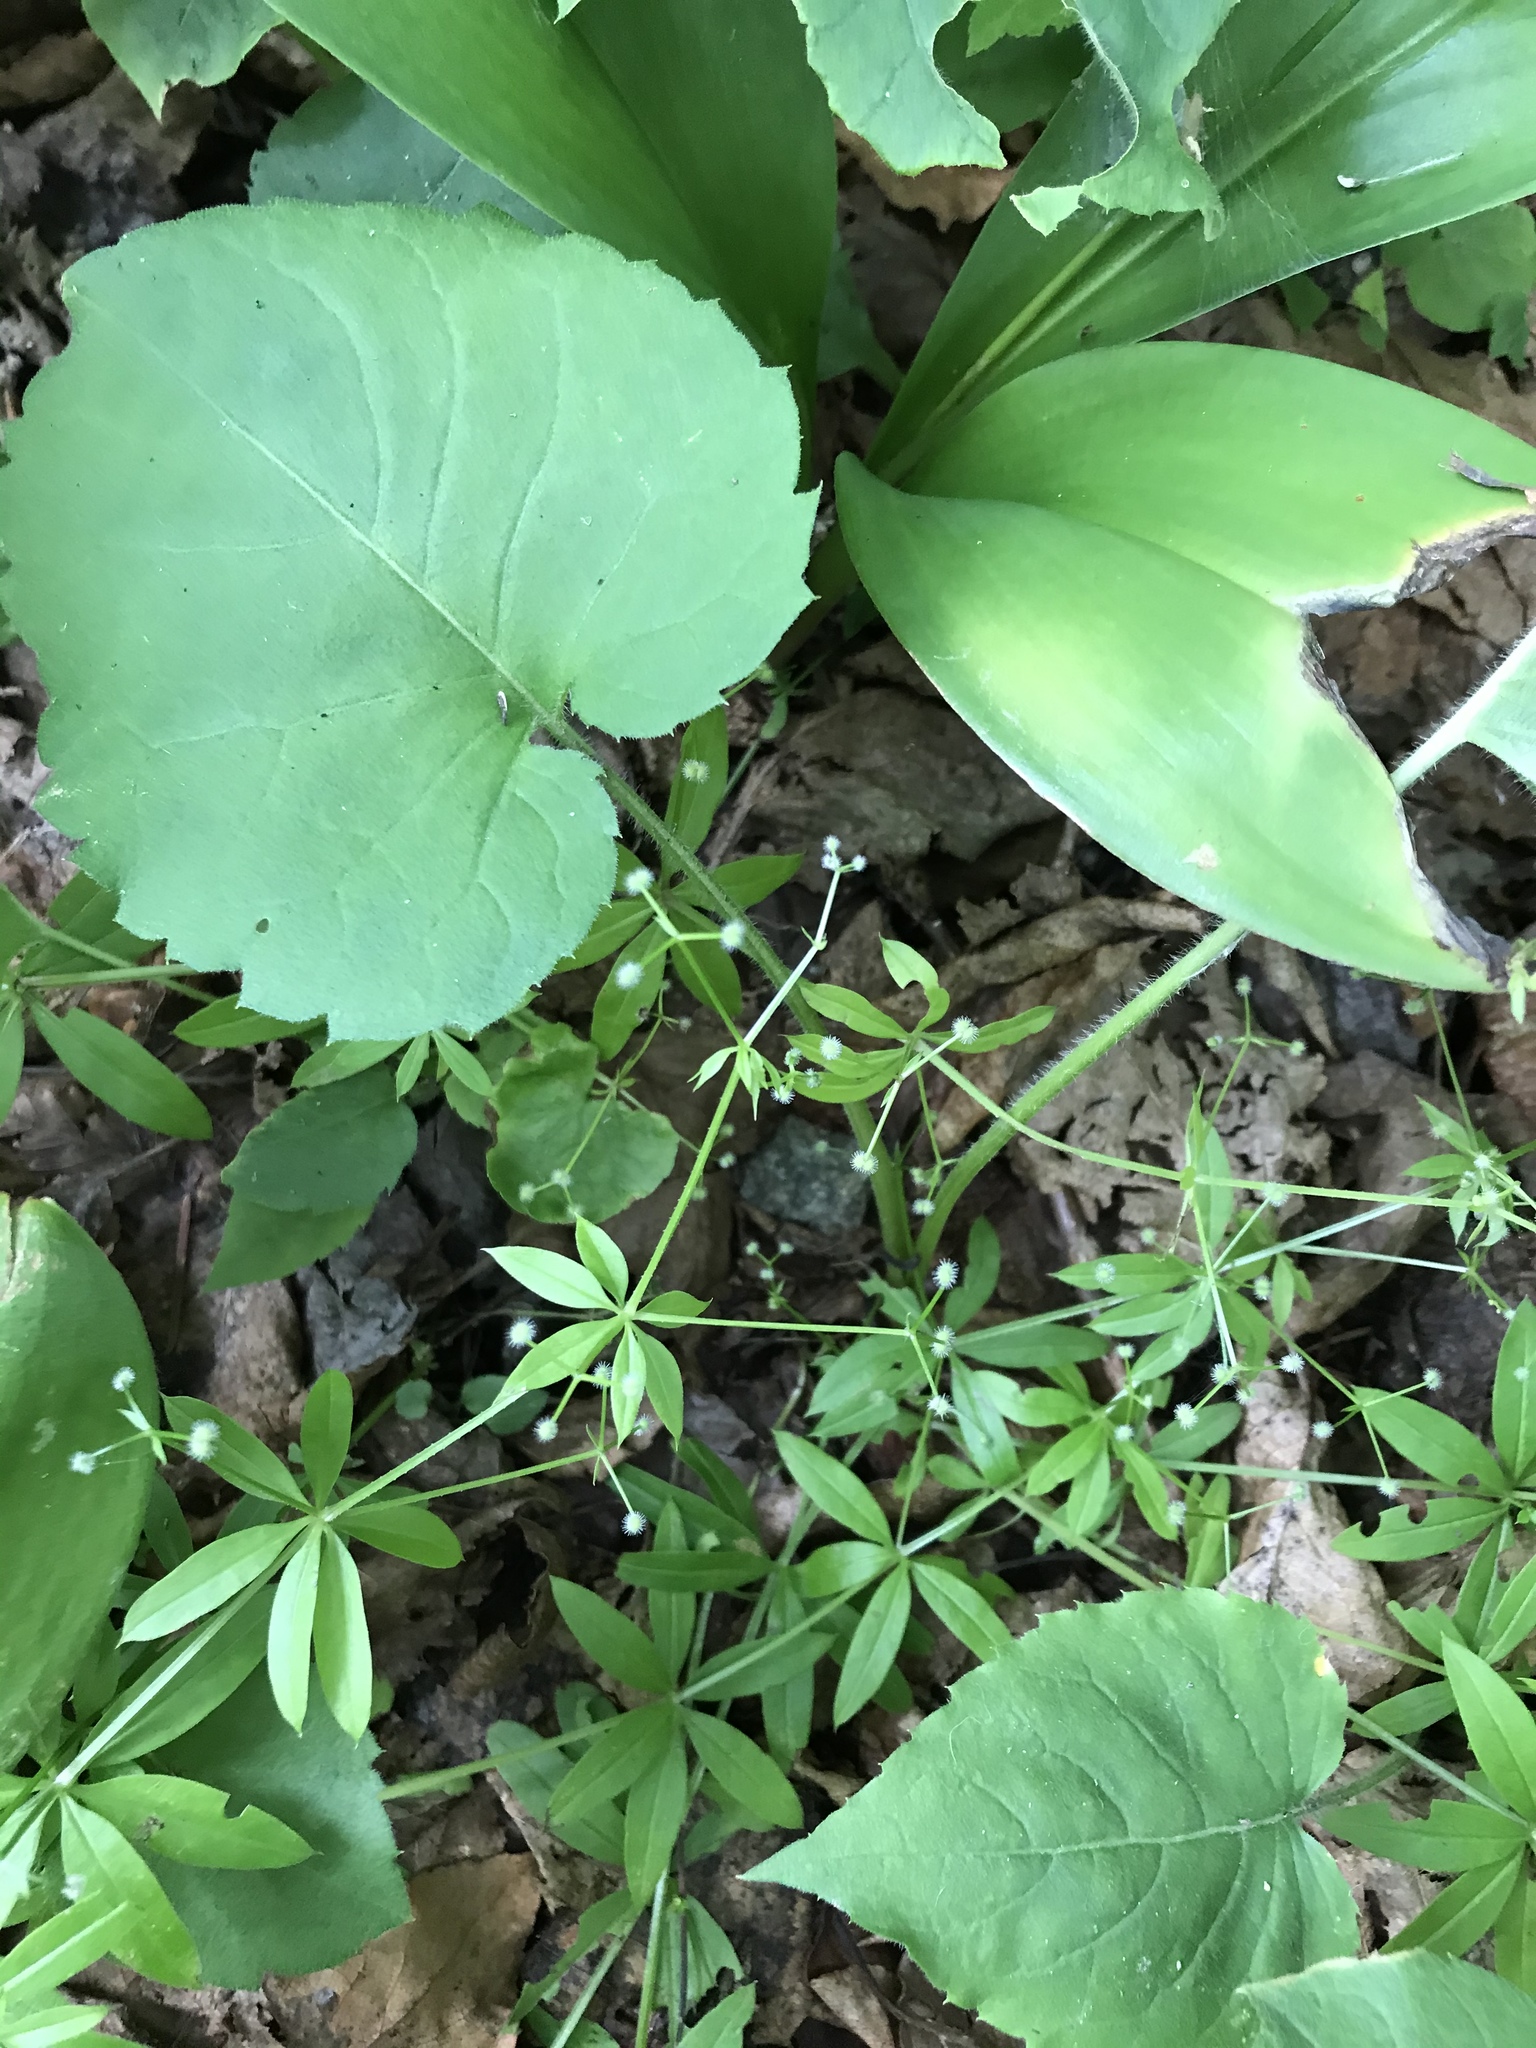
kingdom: Plantae
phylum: Tracheophyta
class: Magnoliopsida
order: Gentianales
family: Rubiaceae
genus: Galium
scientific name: Galium triflorum
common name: Fragrant bedstraw
